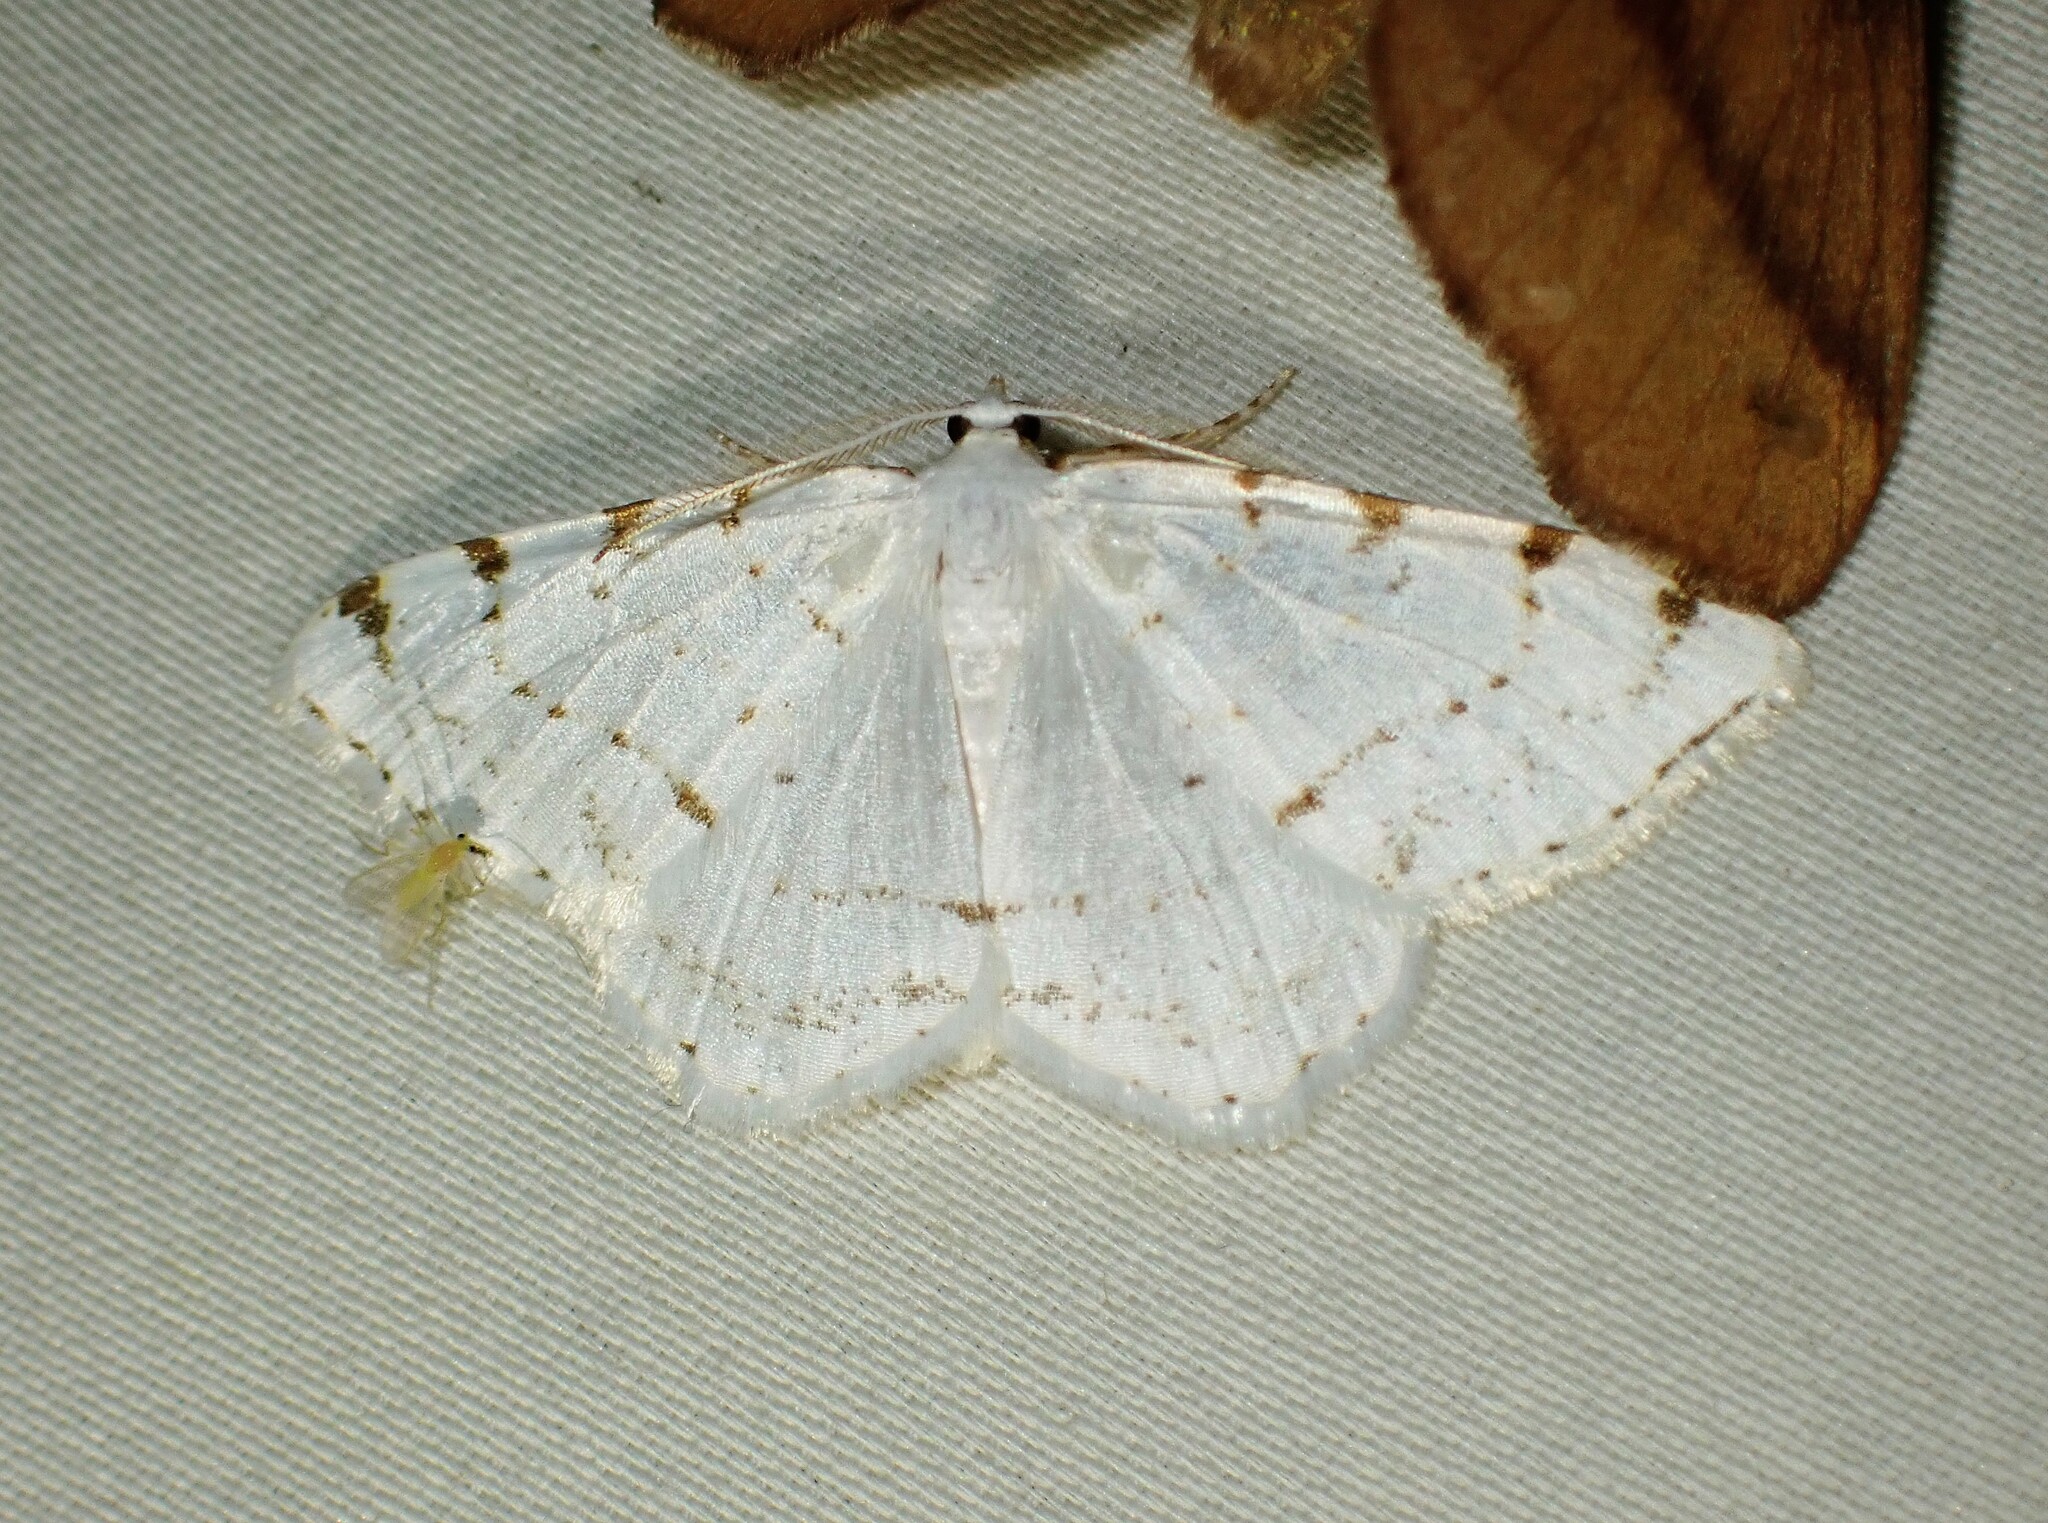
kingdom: Animalia
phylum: Arthropoda
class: Insecta
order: Lepidoptera
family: Geometridae
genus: Macaria
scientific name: Macaria pustularia
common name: Lesser maple spanworm moth
